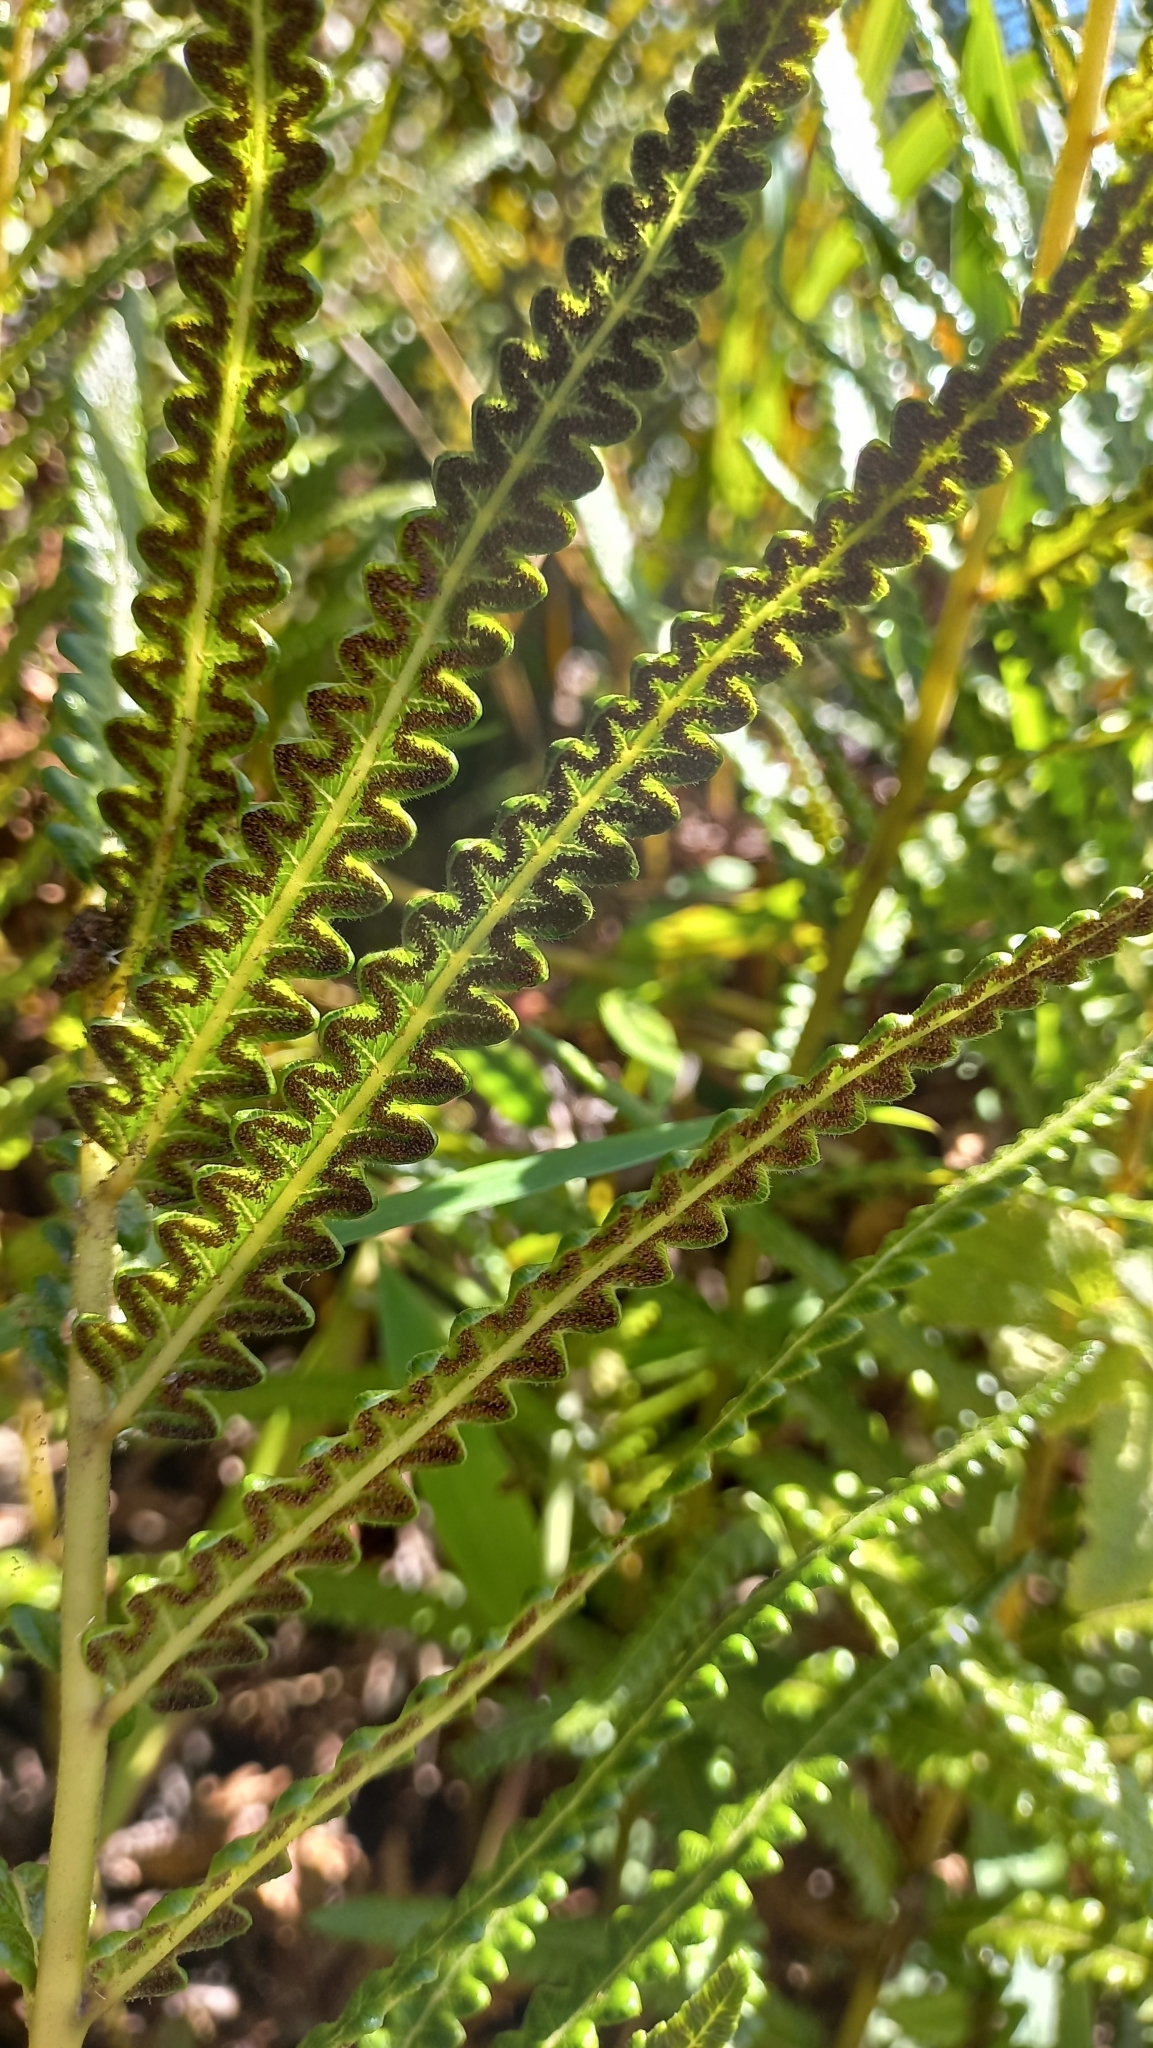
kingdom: Plantae
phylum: Tracheophyta
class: Polypodiopsida
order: Polypodiales
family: Thelypteridaceae
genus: Cyclosorus
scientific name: Cyclosorus interruptus
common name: Neke fern
